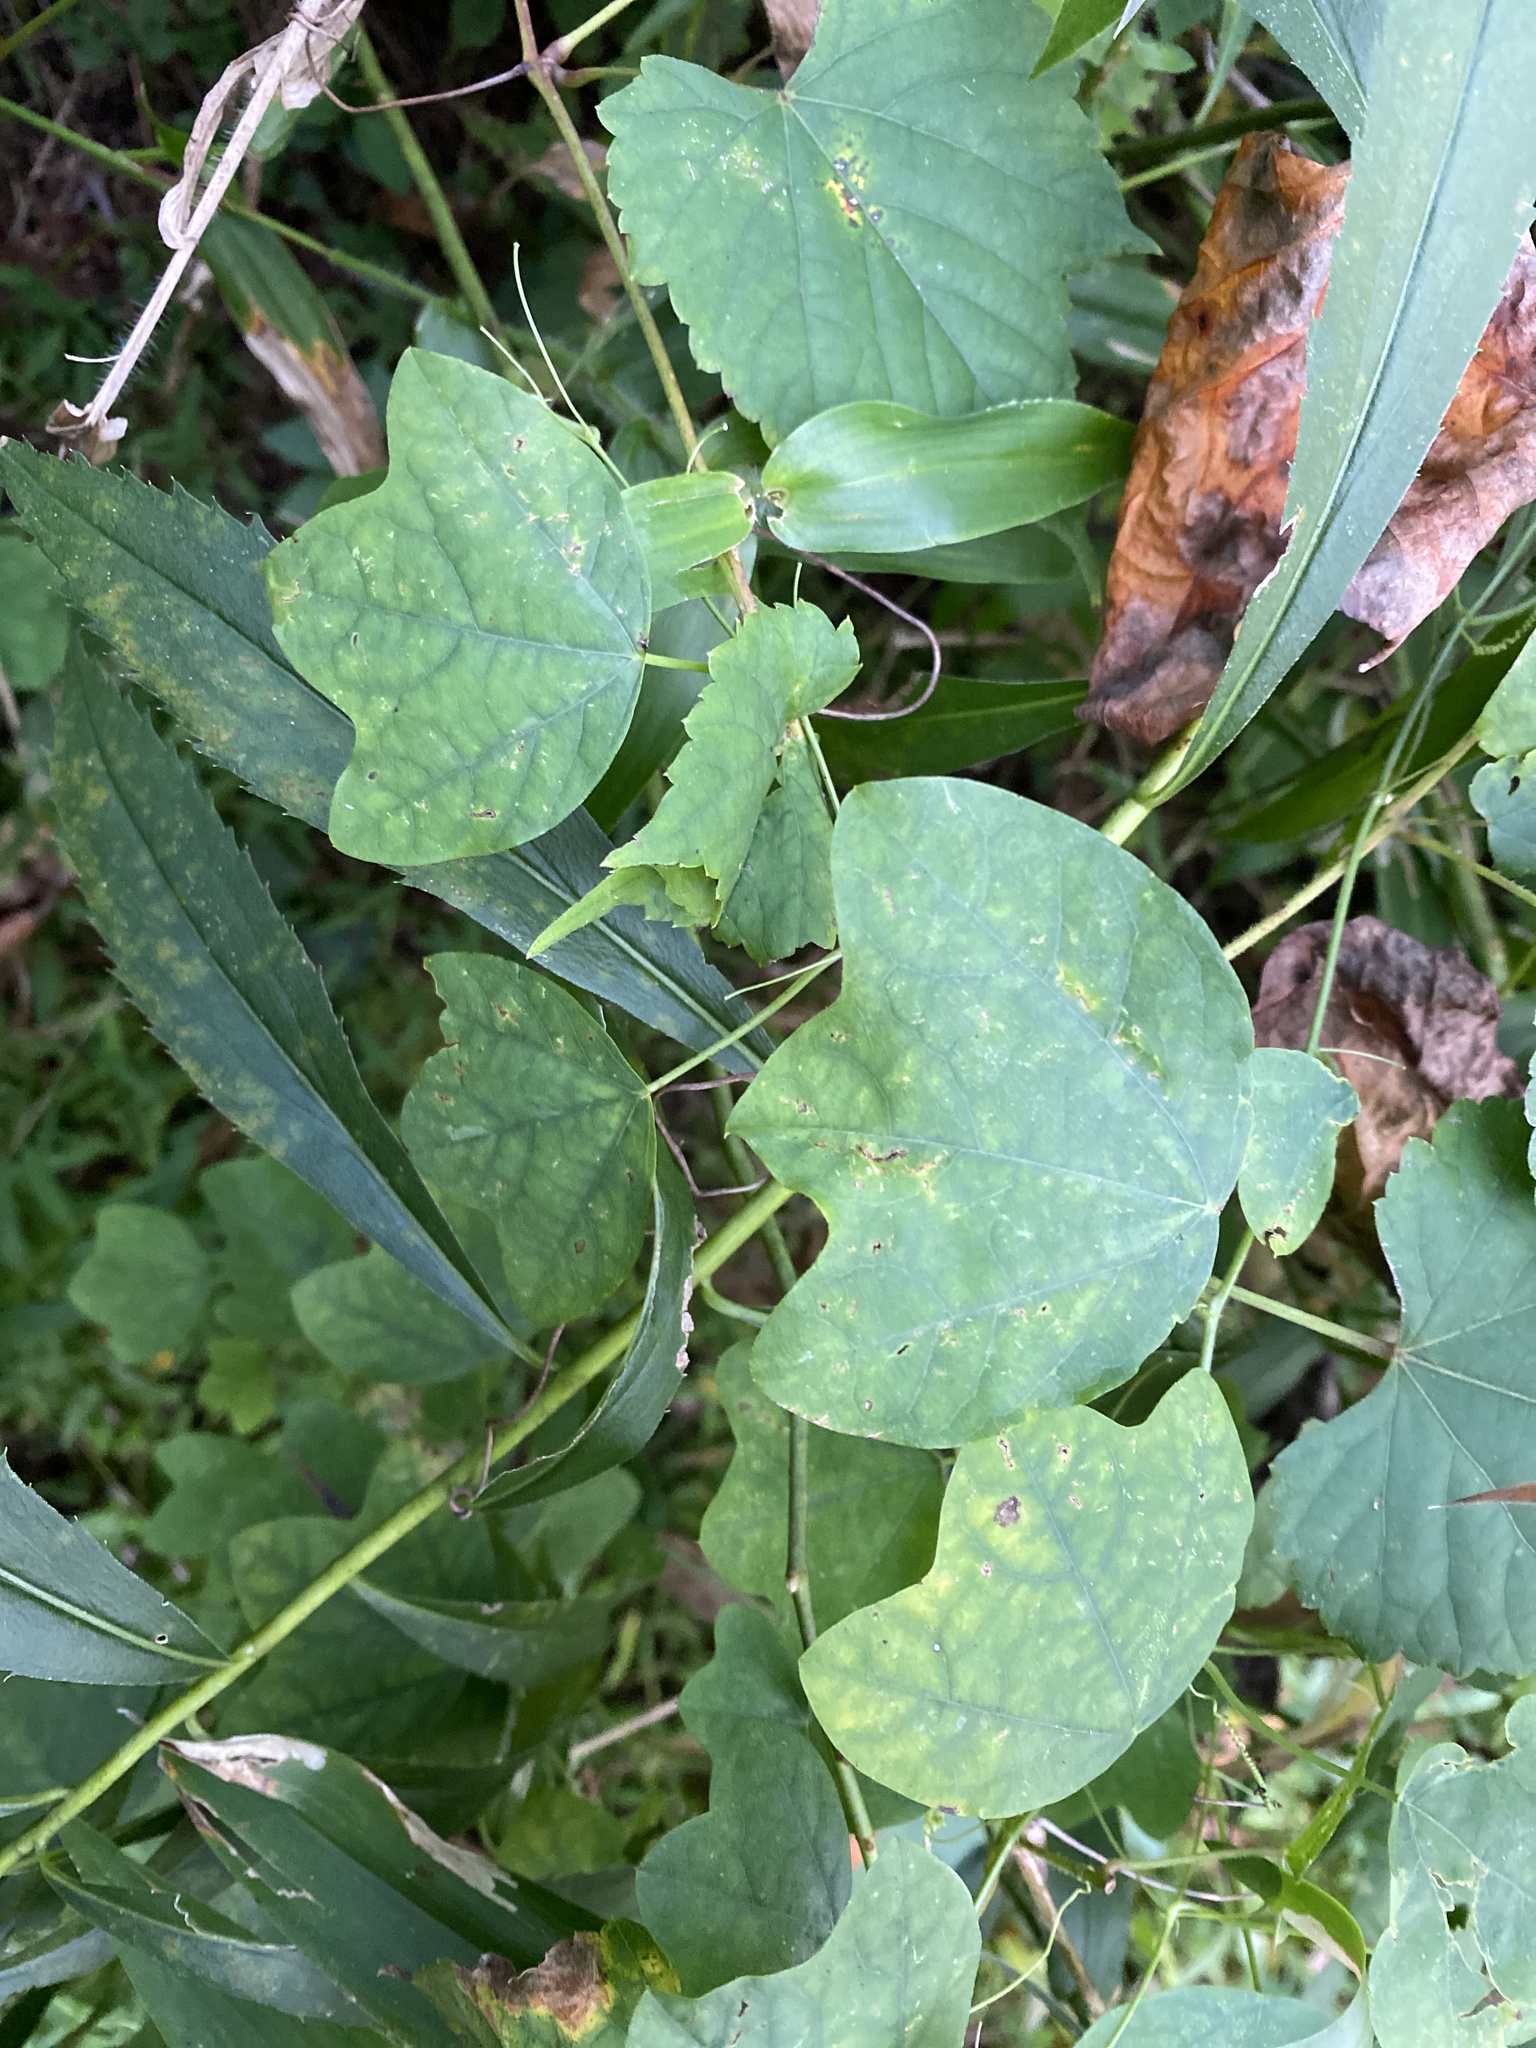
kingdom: Plantae
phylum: Tracheophyta
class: Magnoliopsida
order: Malpighiales
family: Passifloraceae
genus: Passiflora
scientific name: Passiflora lutea
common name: Yellow passionflower
